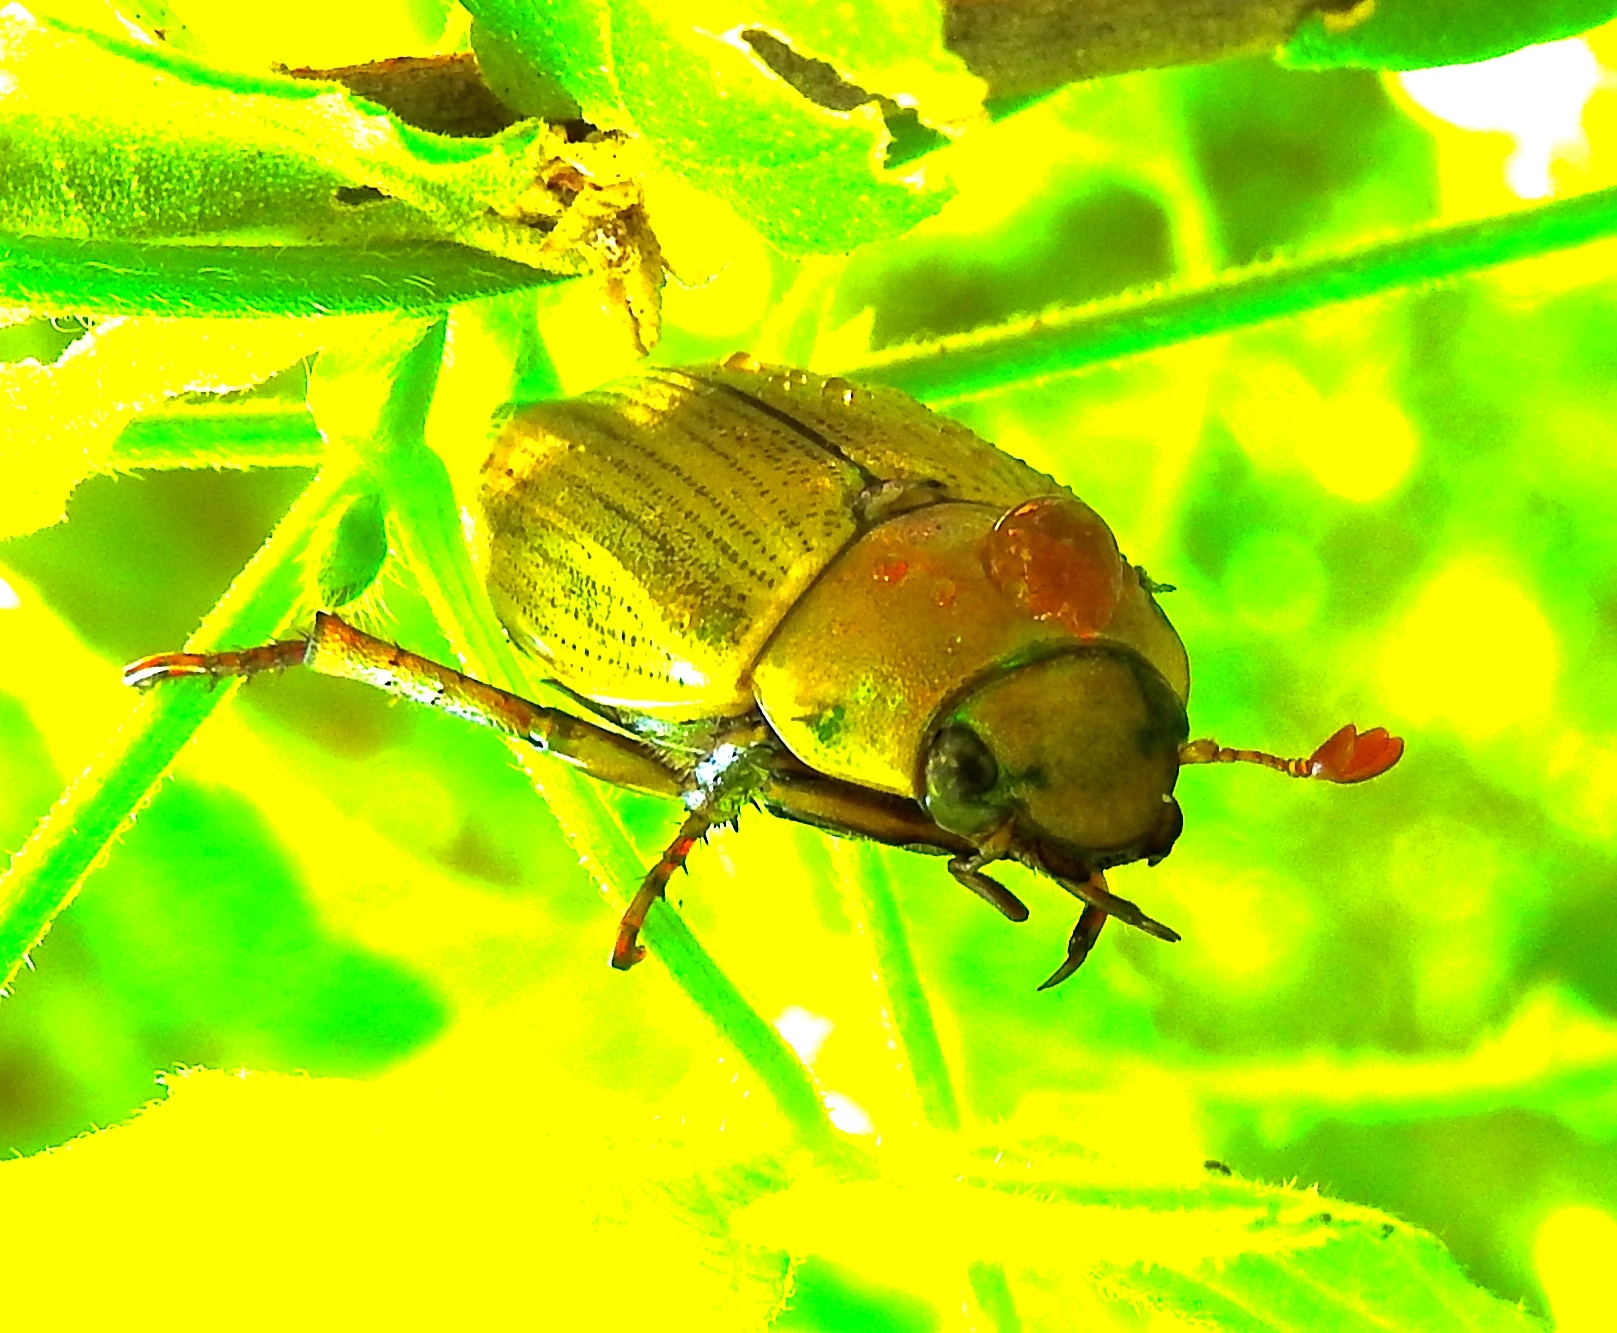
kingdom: Animalia
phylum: Arthropoda
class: Insecta
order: Coleoptera
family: Scarabaeidae
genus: Pelidnota
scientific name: Pelidnota
